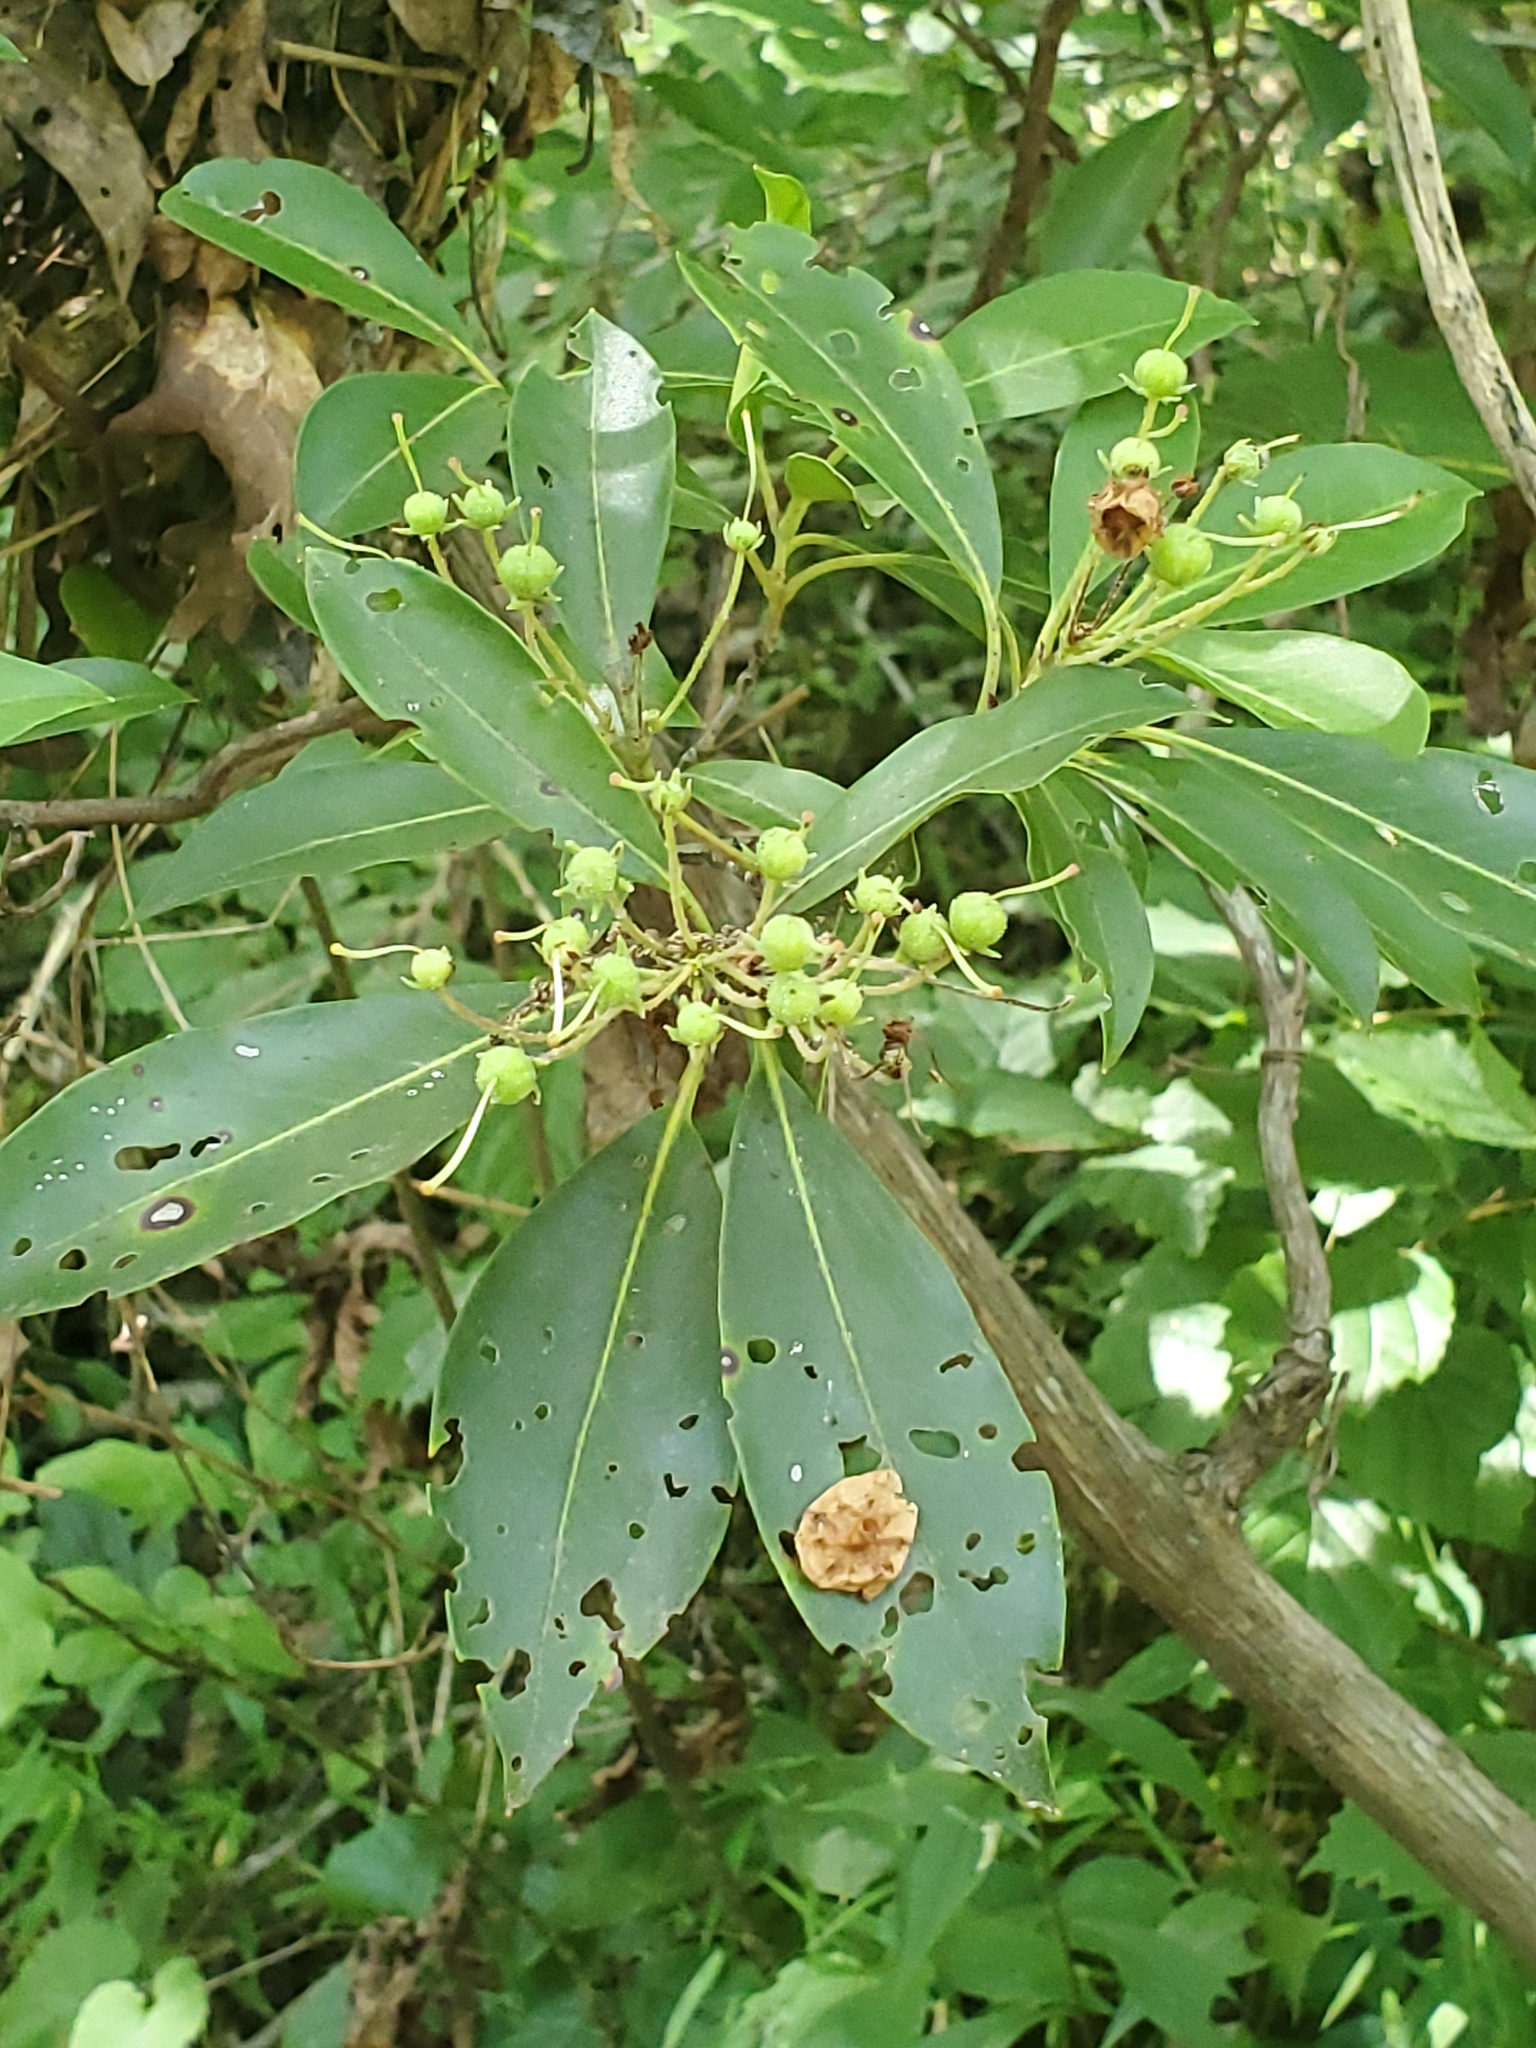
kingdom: Plantae
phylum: Tracheophyta
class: Magnoliopsida
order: Ericales
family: Ericaceae
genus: Kalmia
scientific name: Kalmia latifolia
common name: Mountain-laurel
